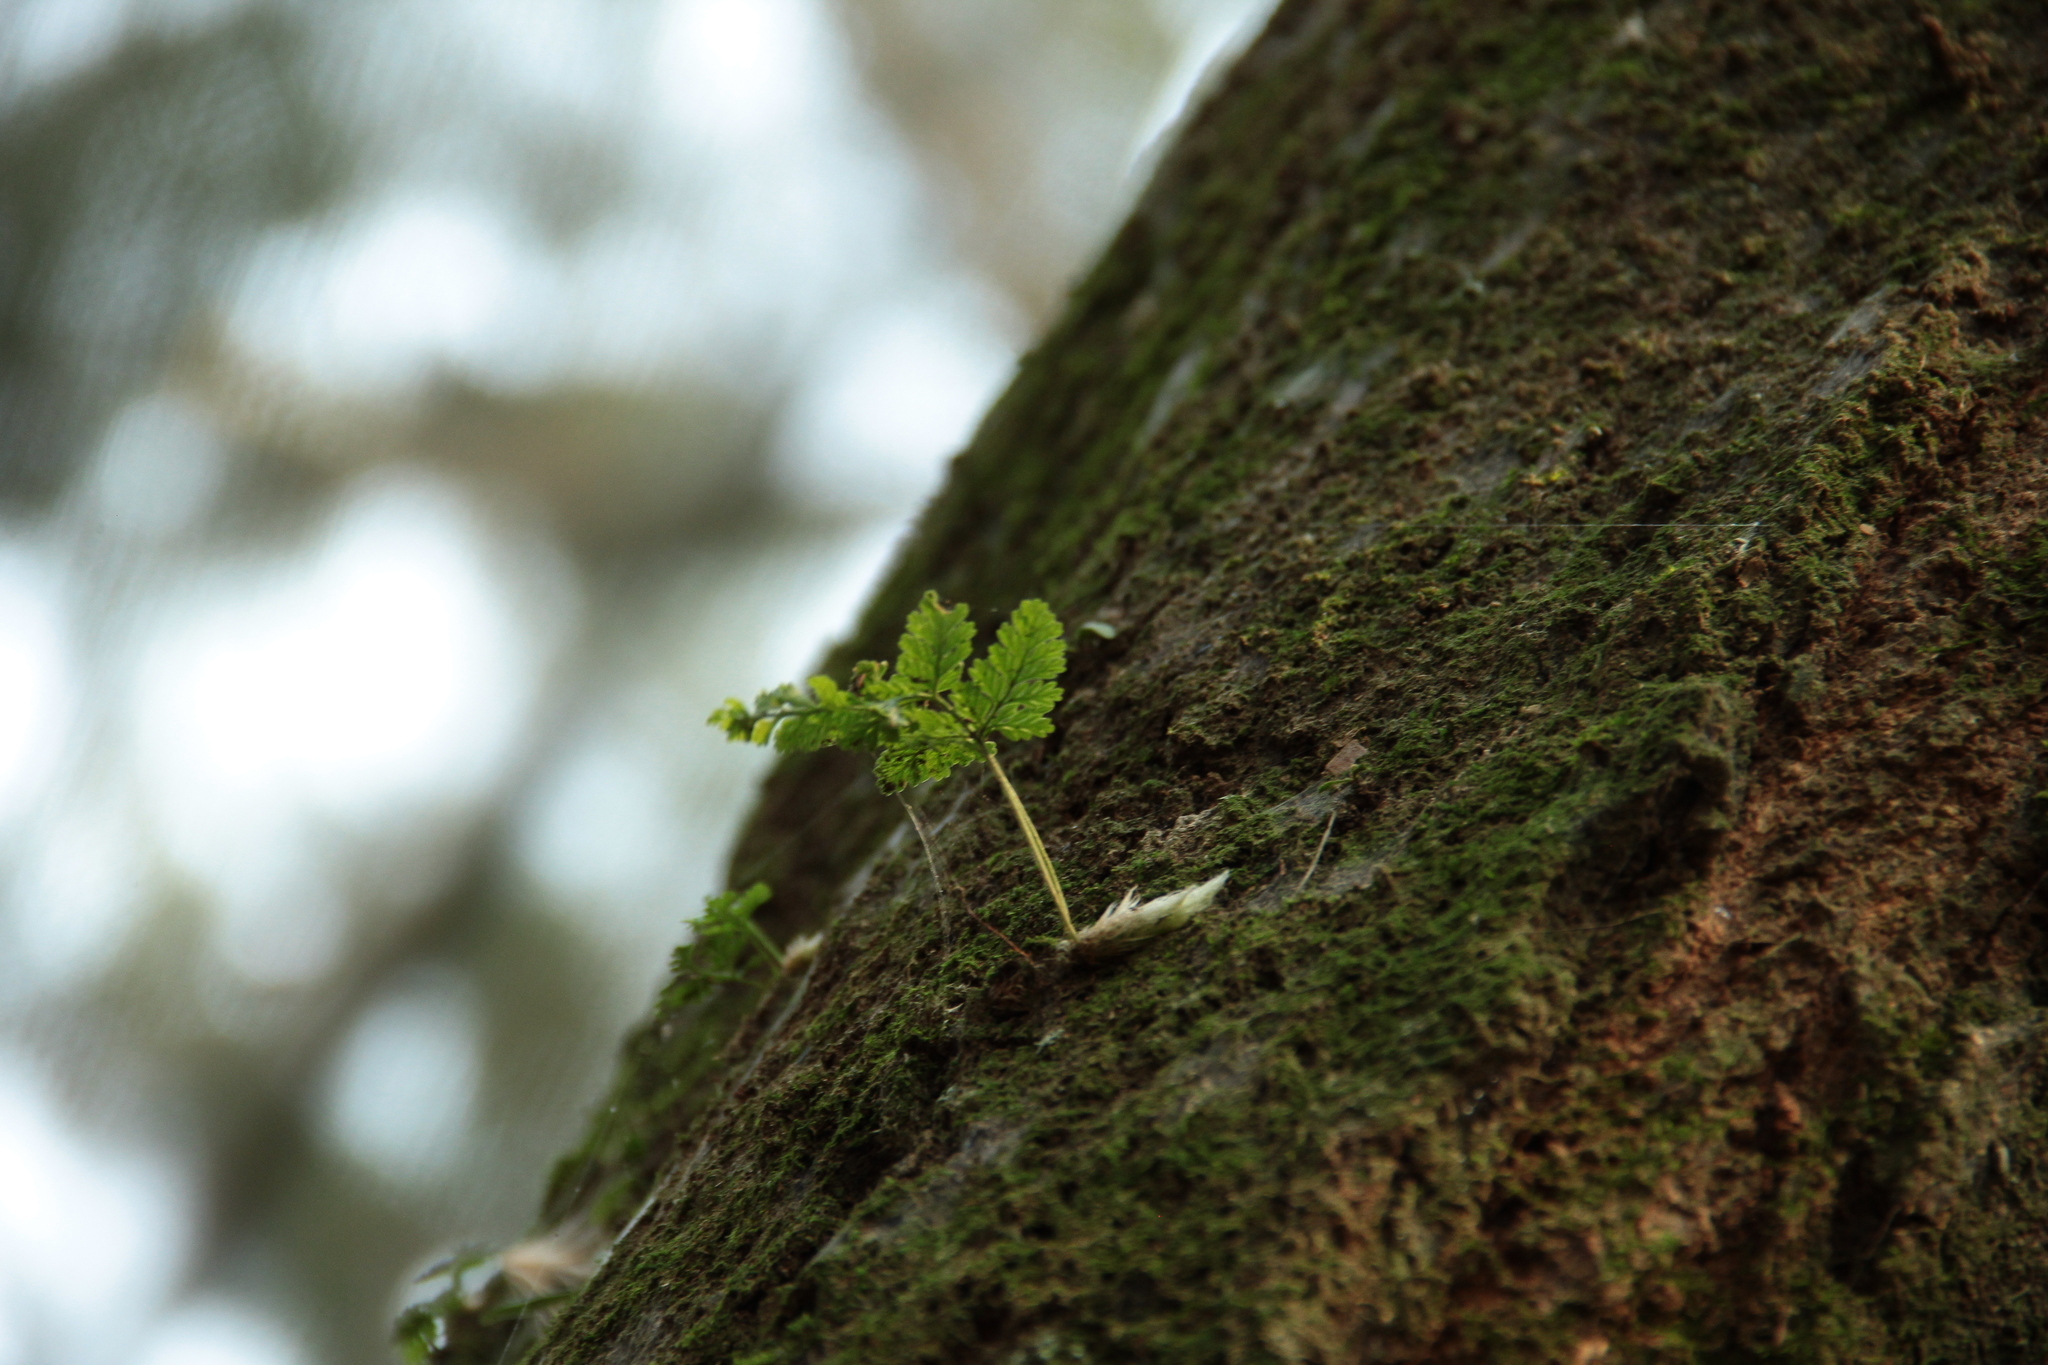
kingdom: Plantae
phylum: Tracheophyta
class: Polypodiopsida
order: Polypodiales
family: Davalliaceae
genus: Davallia
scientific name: Davallia griffithiana
